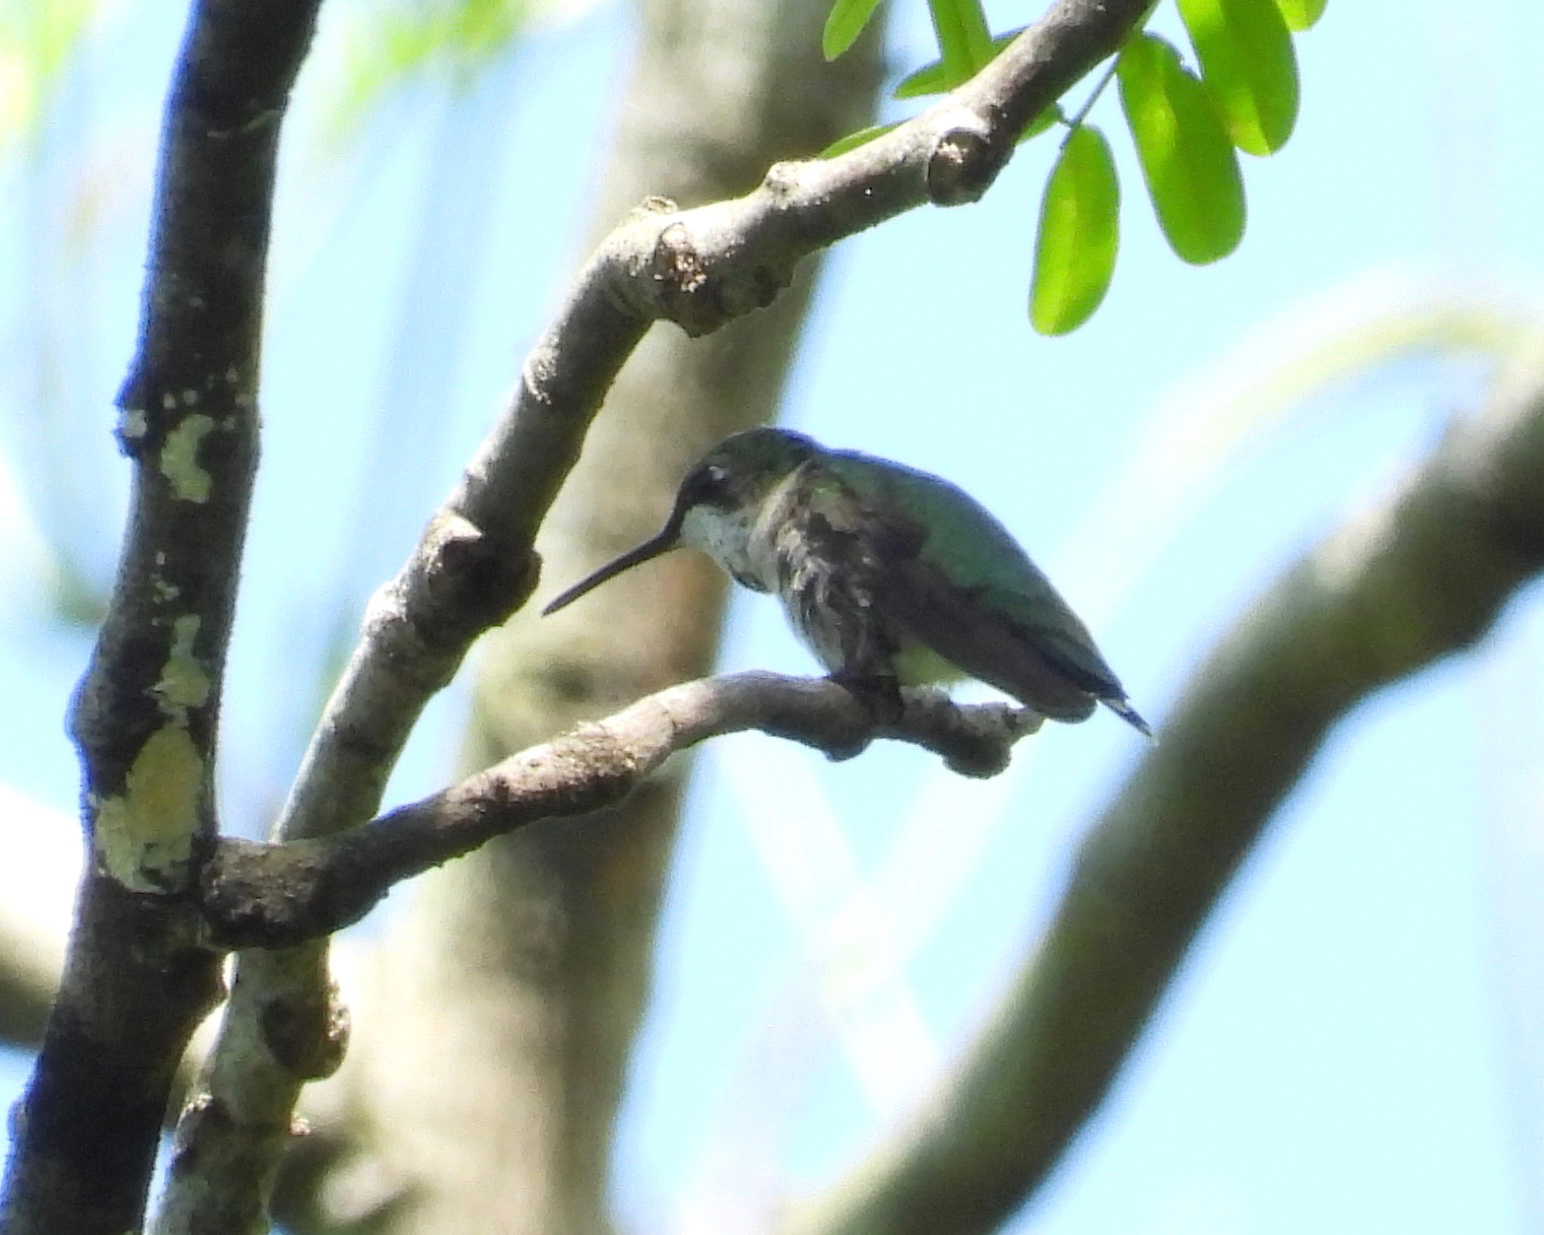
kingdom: Animalia
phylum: Chordata
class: Aves
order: Apodiformes
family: Trochilidae
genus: Archilochus
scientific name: Archilochus colubris
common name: Ruby-throated hummingbird
